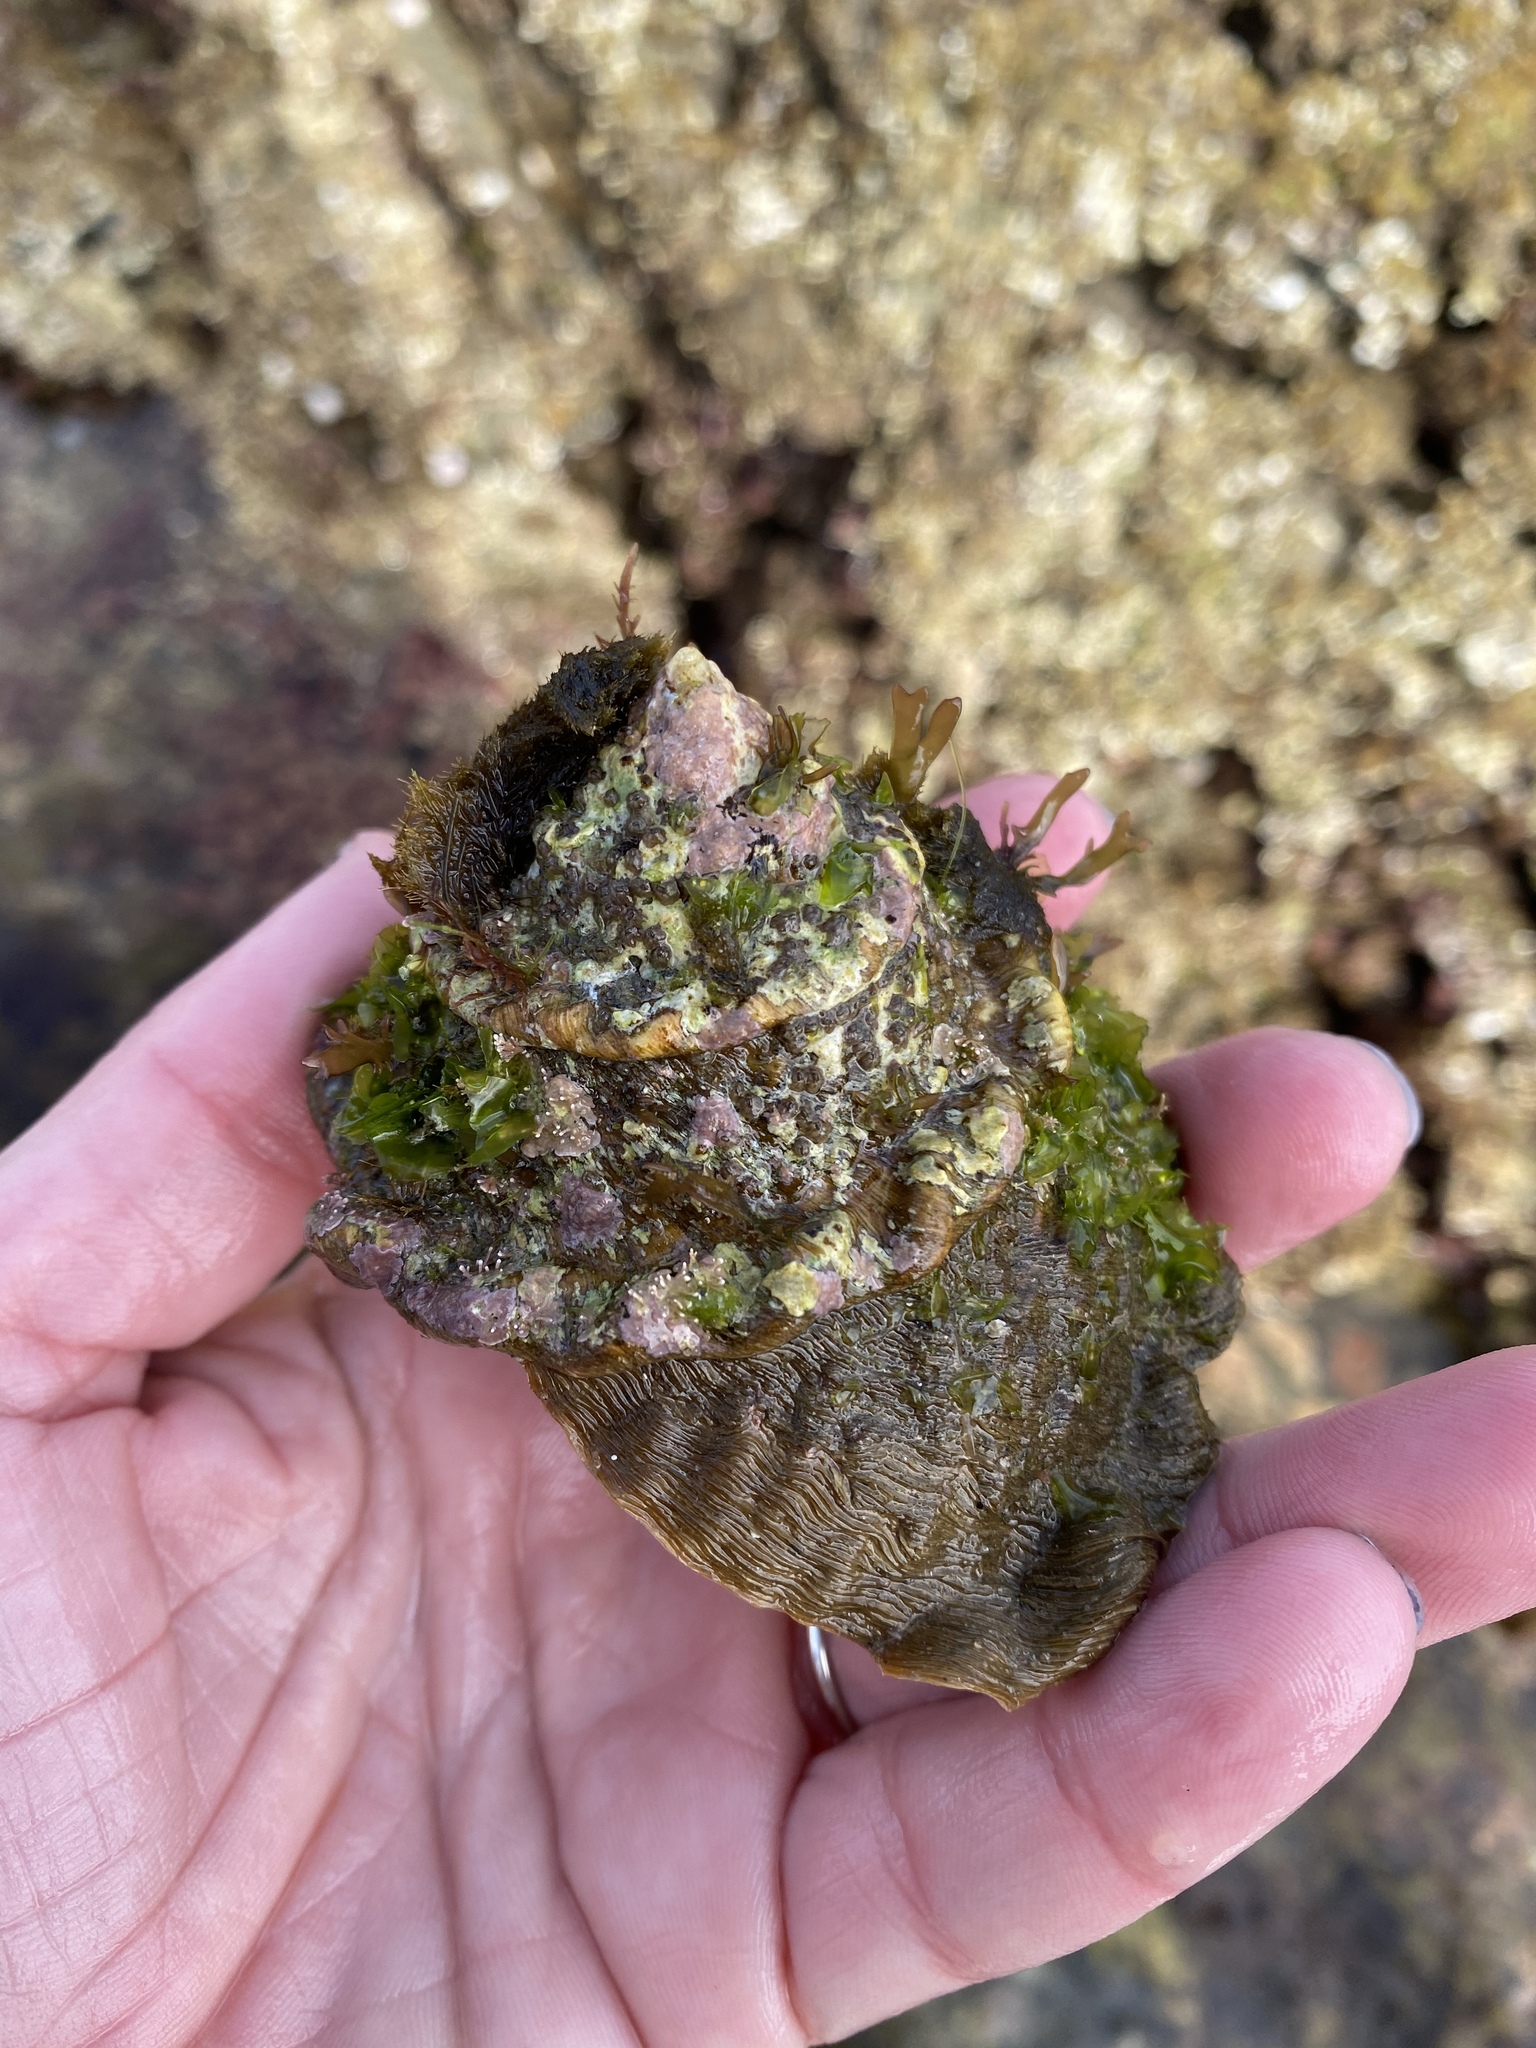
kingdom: Animalia
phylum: Mollusca
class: Gastropoda
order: Trochida
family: Turbinidae
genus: Megastraea
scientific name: Megastraea undosa
